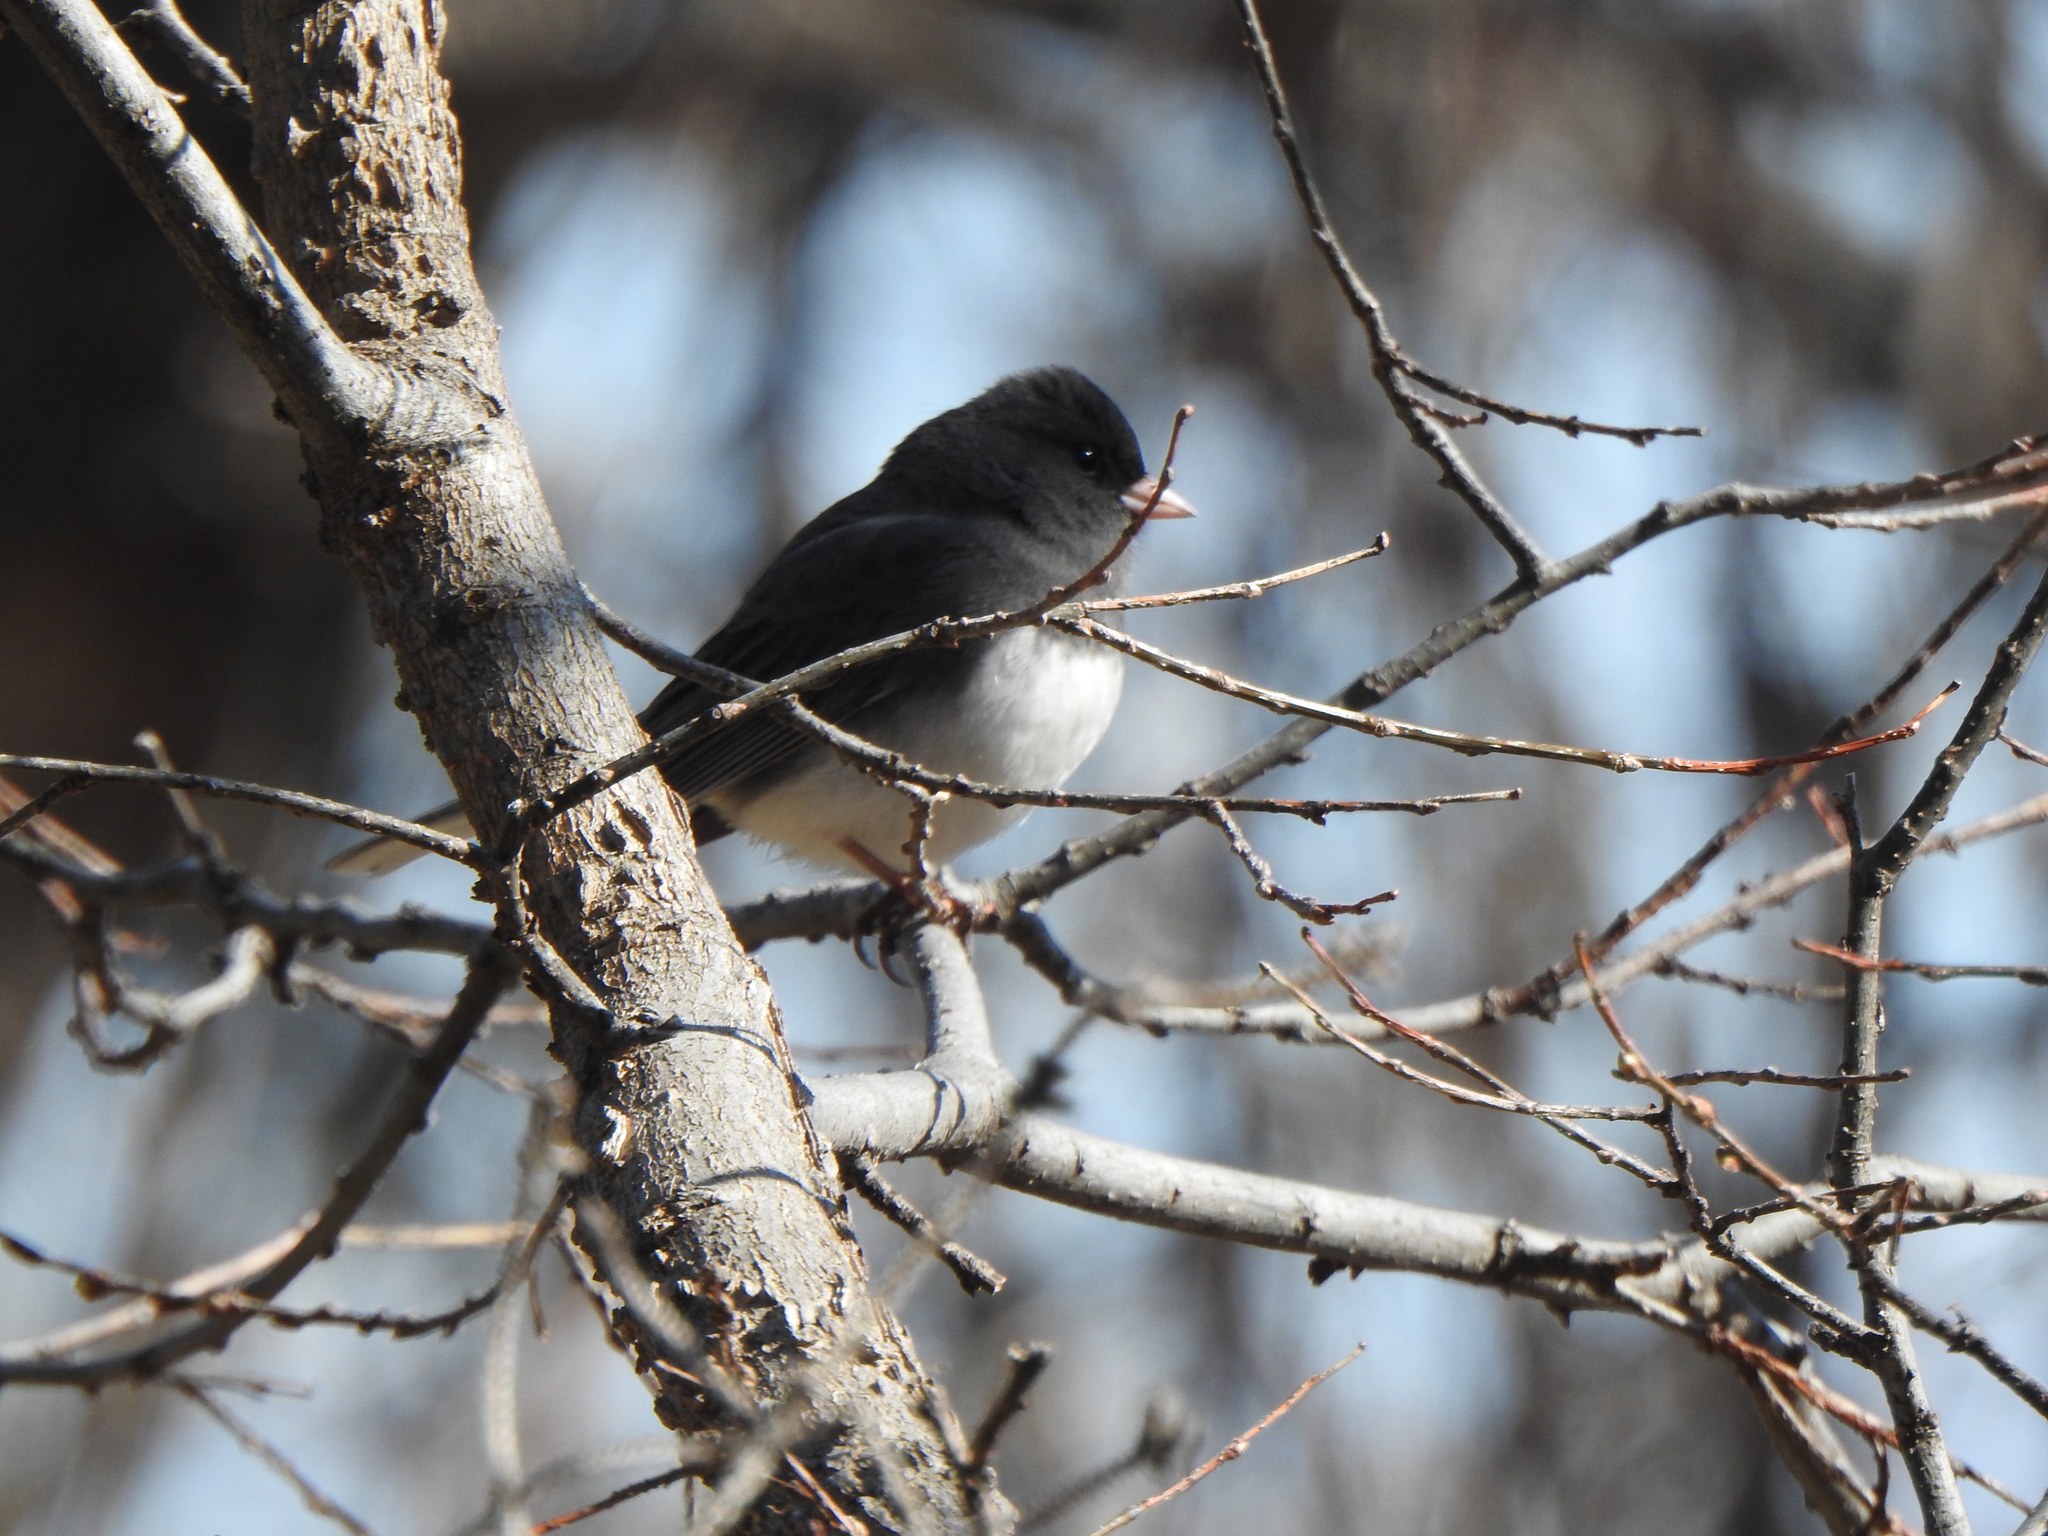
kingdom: Animalia
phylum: Chordata
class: Aves
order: Passeriformes
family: Passerellidae
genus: Junco
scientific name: Junco hyemalis
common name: Dark-eyed junco
